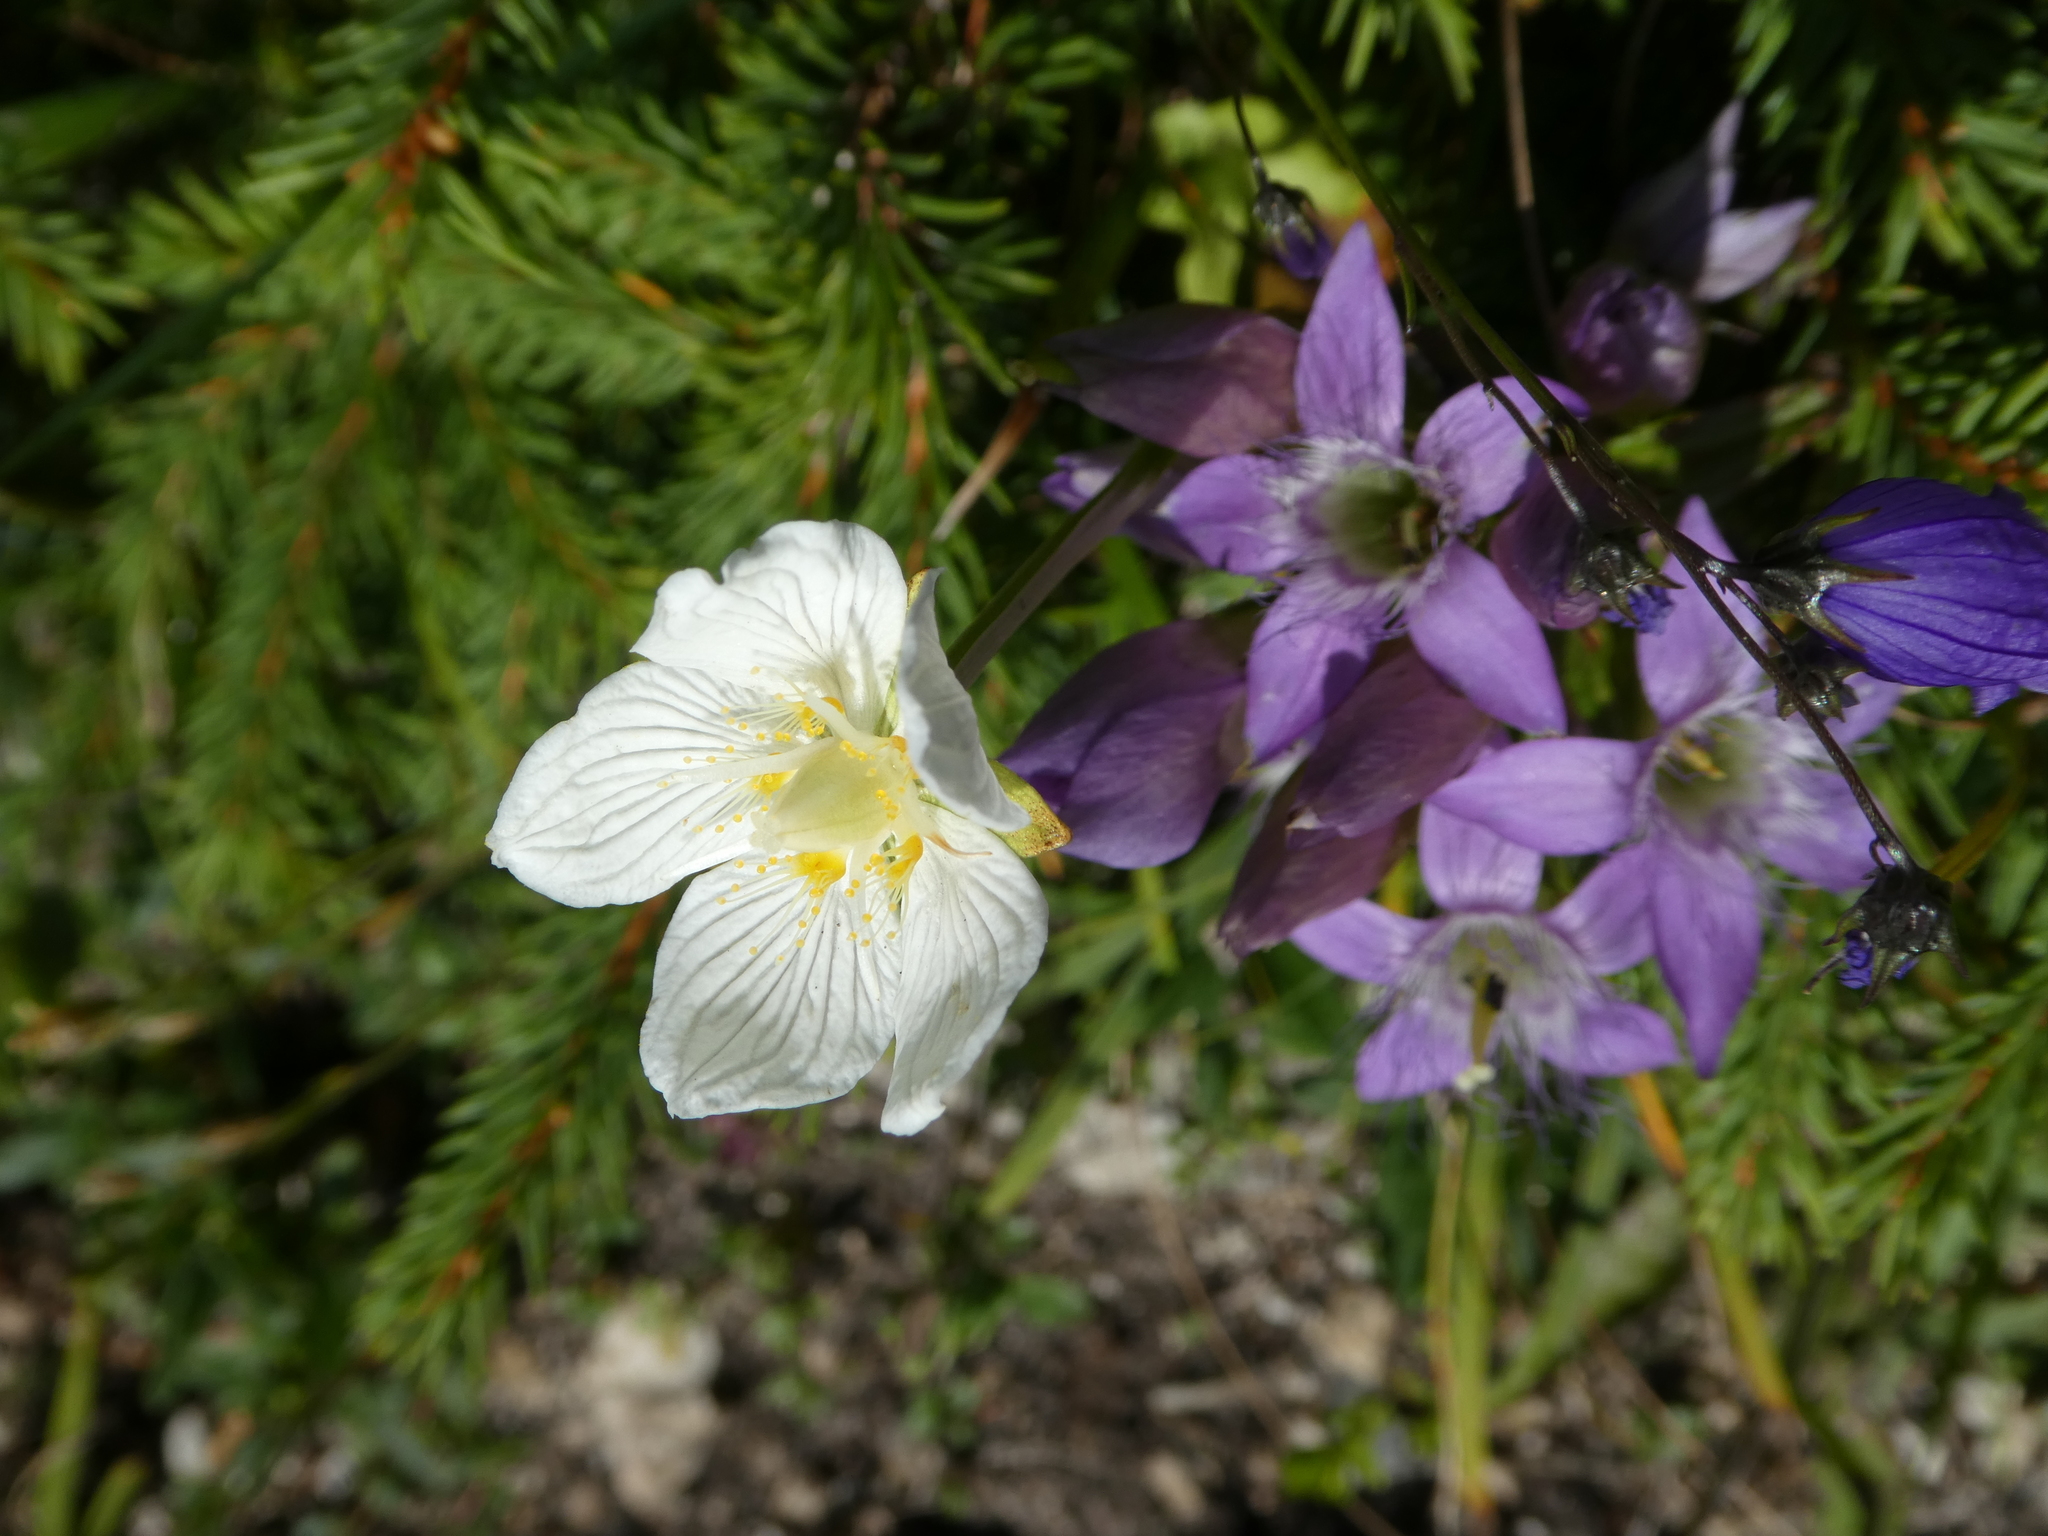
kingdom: Plantae
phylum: Tracheophyta
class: Magnoliopsida
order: Celastrales
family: Parnassiaceae
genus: Parnassia
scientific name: Parnassia palustris
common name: Grass-of-parnassus
